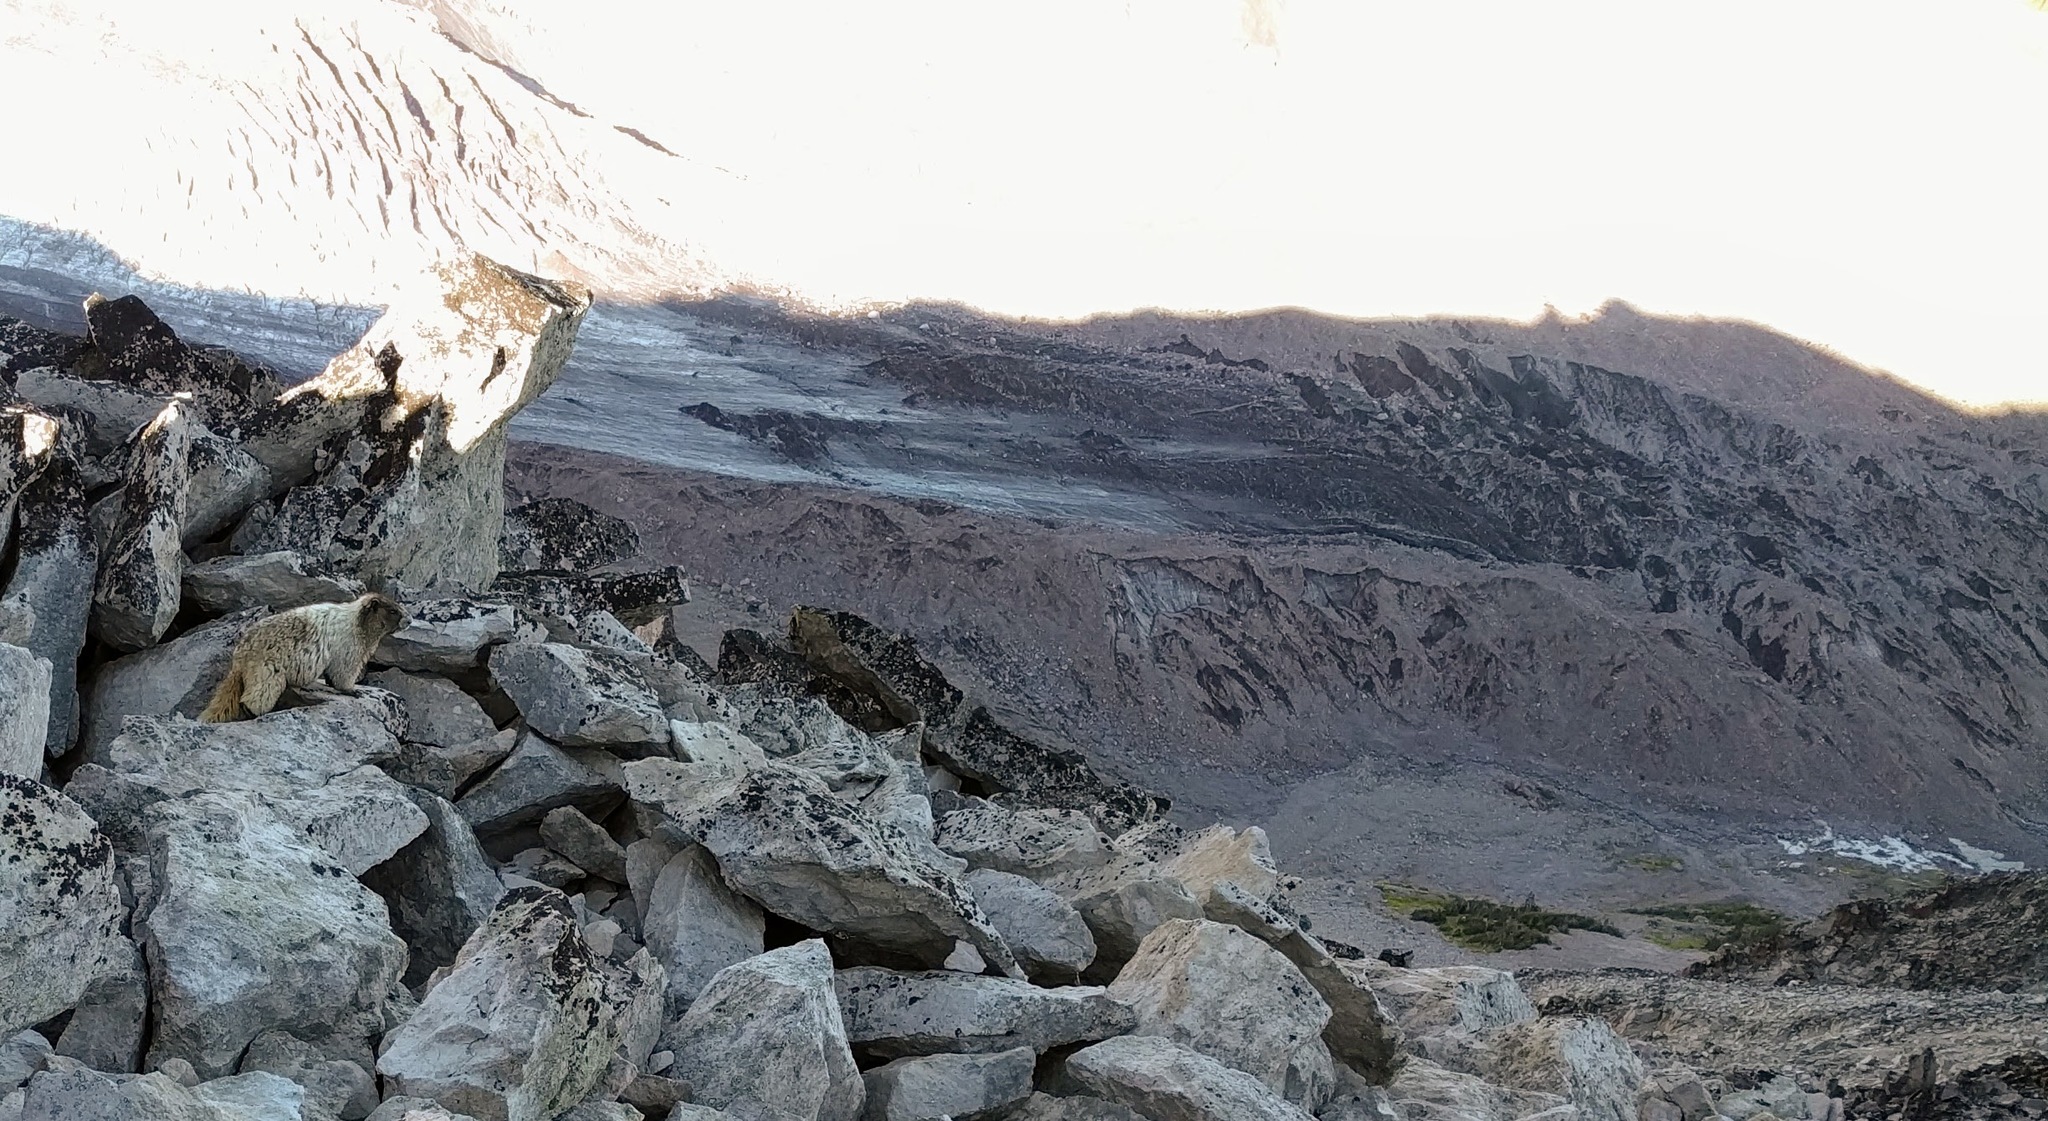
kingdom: Animalia
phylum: Chordata
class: Mammalia
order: Rodentia
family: Sciuridae
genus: Marmota
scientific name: Marmota caligata
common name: Hoary marmot
